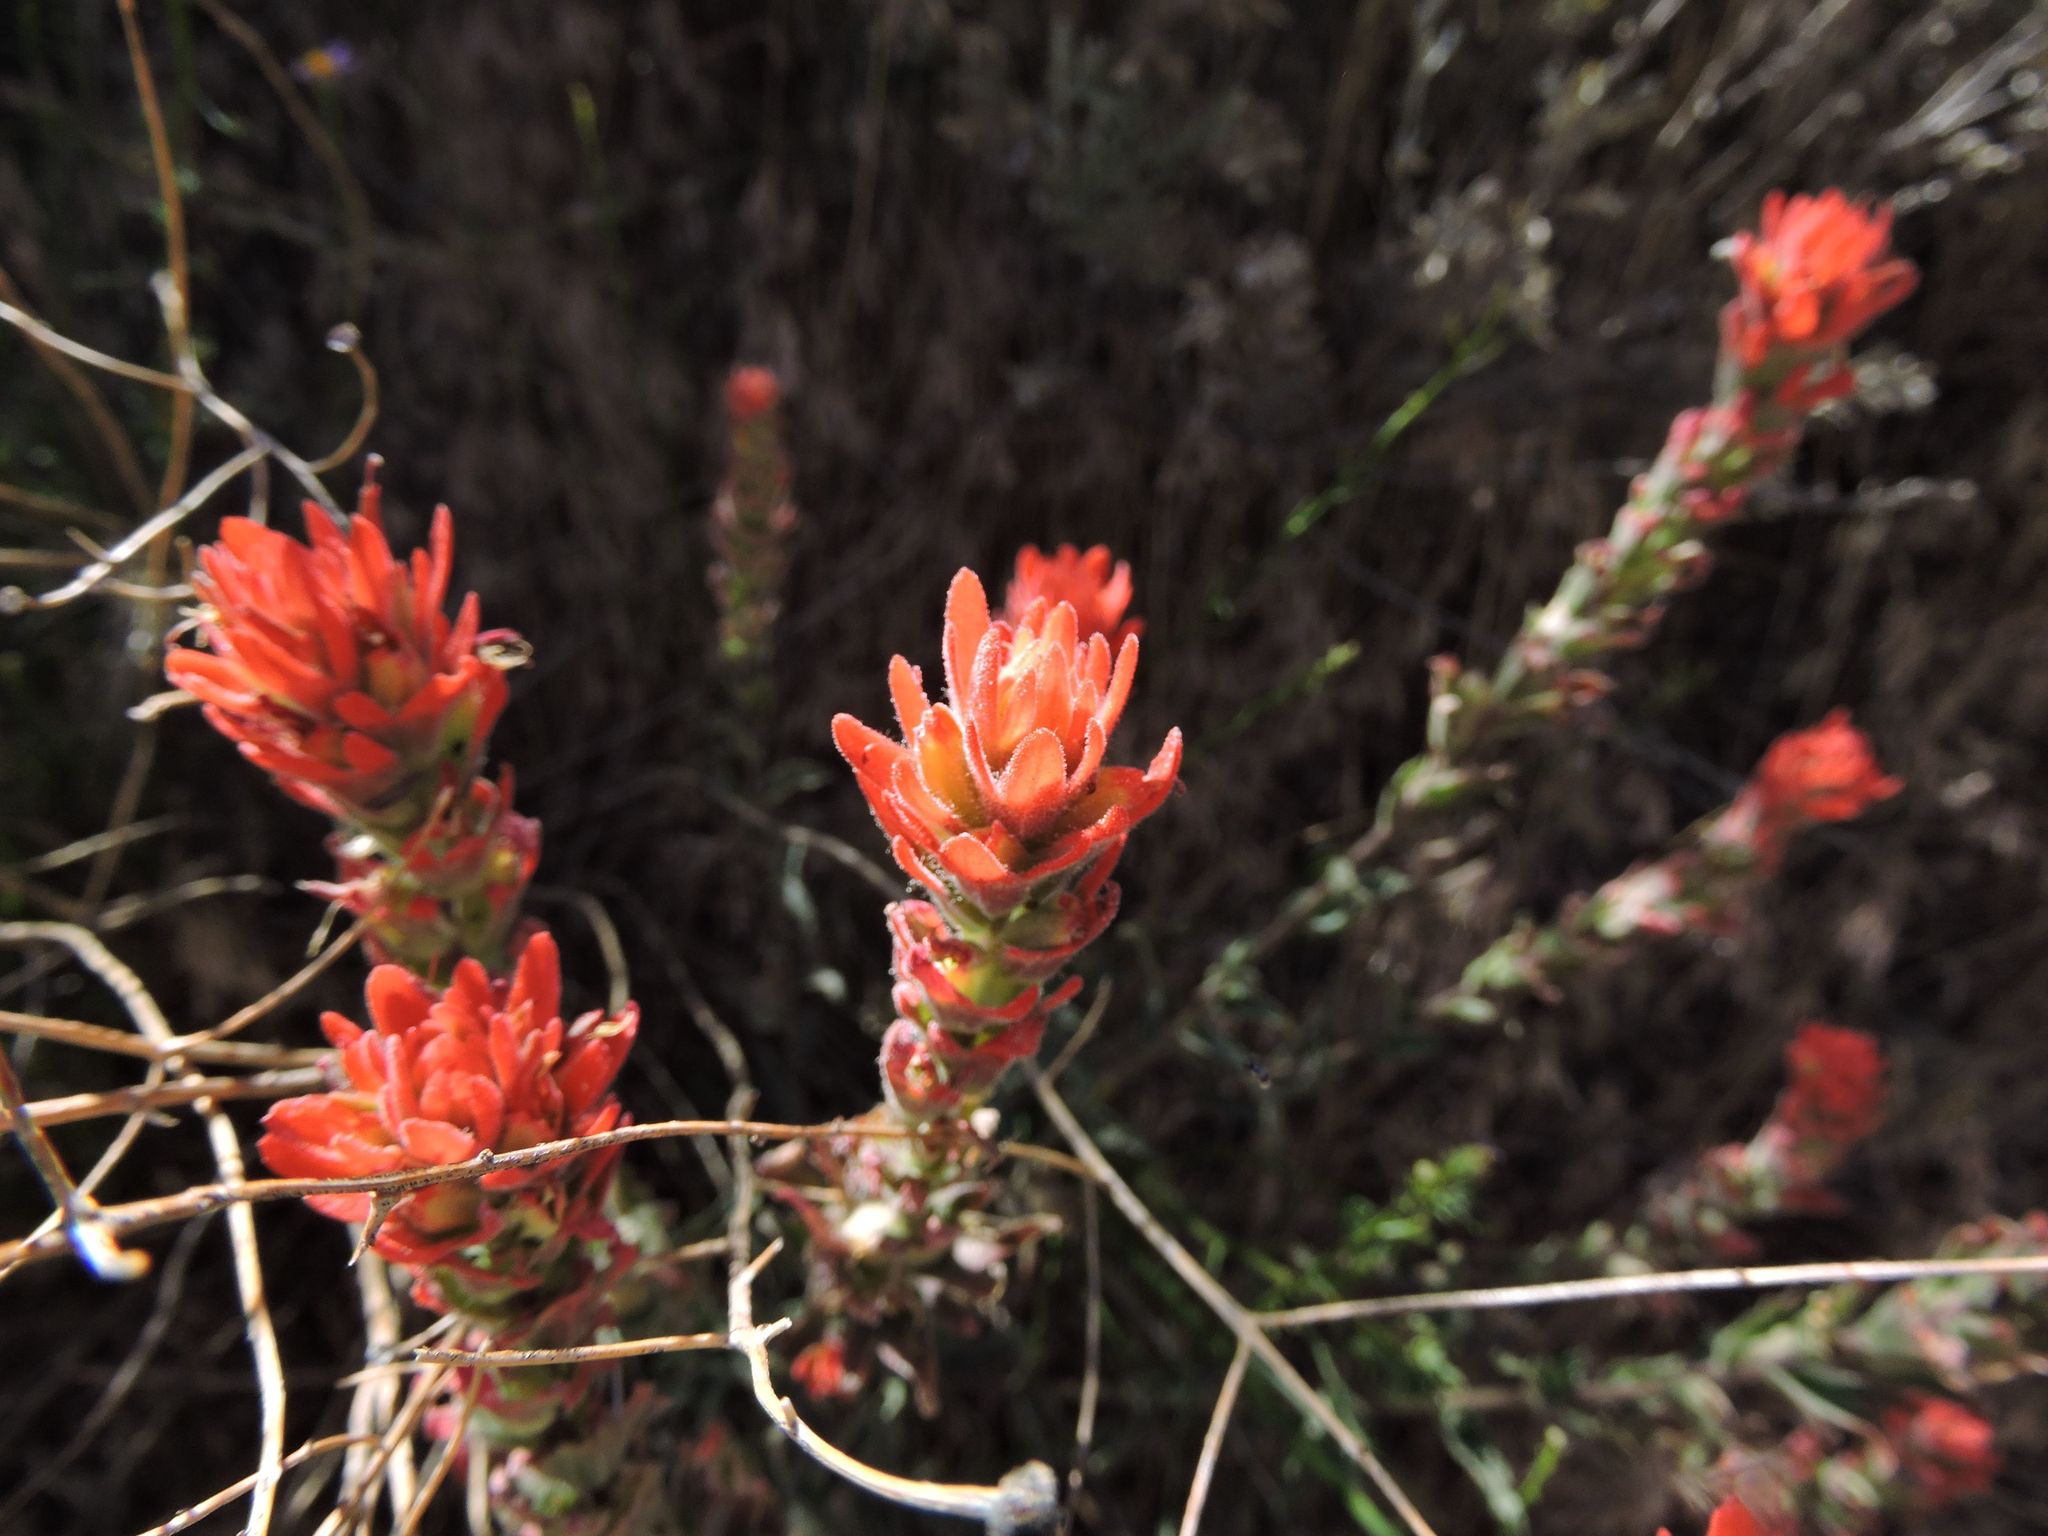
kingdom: Plantae
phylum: Tracheophyta
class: Magnoliopsida
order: Lamiales
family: Orobanchaceae
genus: Castilleja
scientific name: Castilleja applegatei
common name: Wavy-leaf paintbrush
